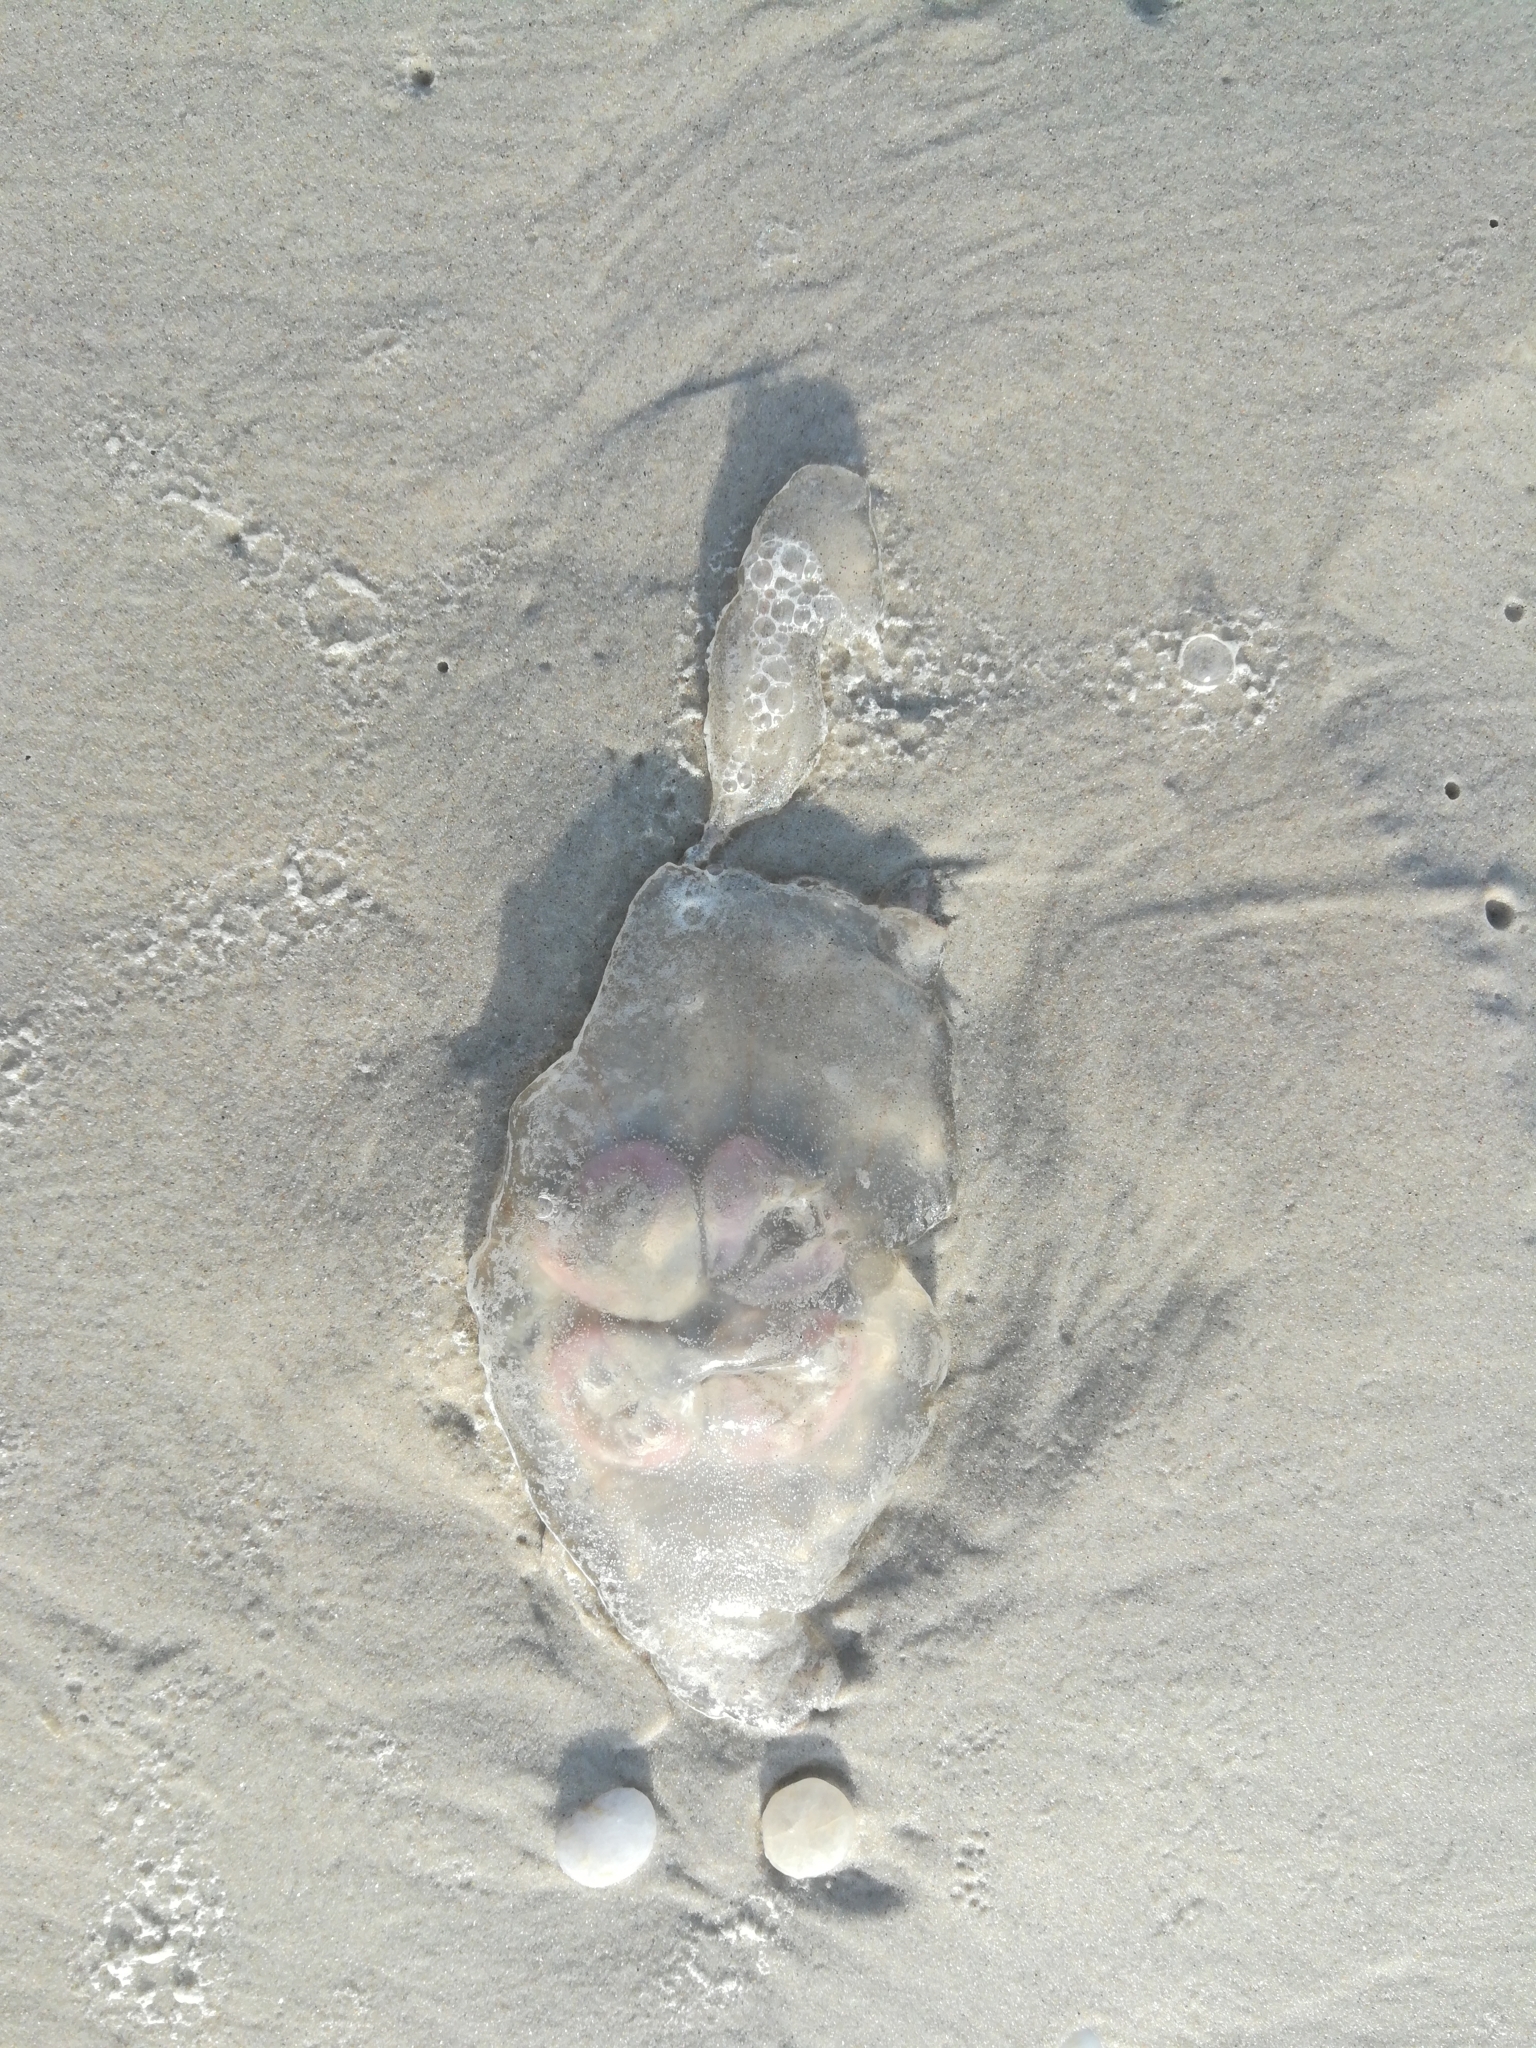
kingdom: Animalia
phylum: Cnidaria
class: Scyphozoa
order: Semaeostomeae
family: Ulmaridae
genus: Aurelia
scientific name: Aurelia marginalis
